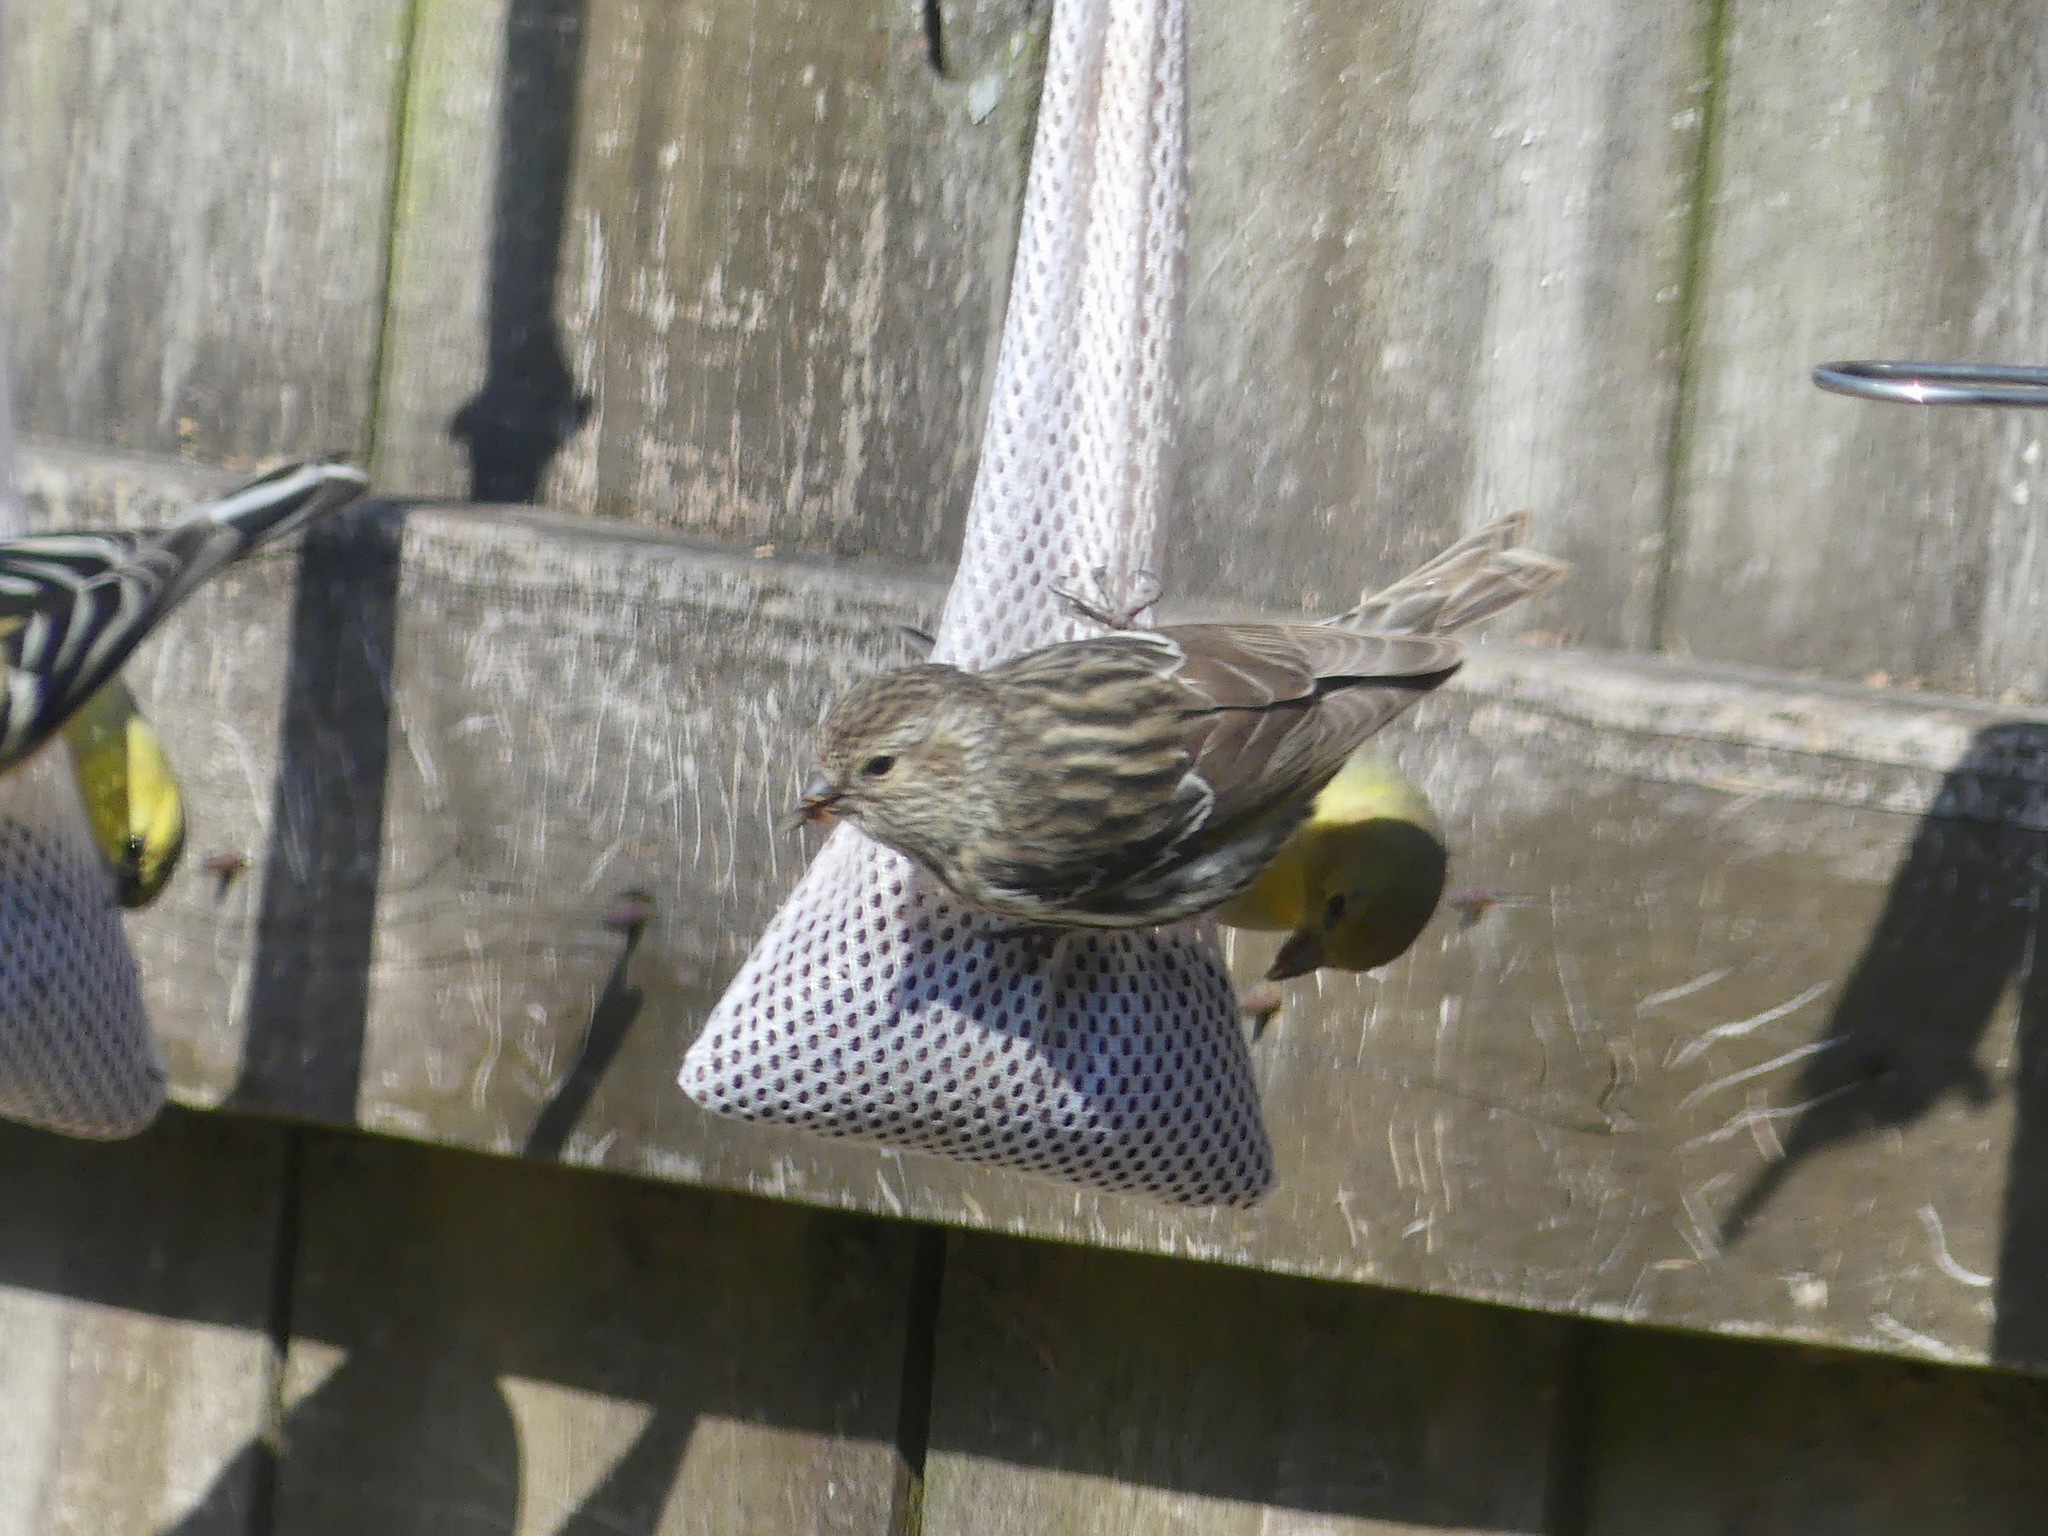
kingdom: Animalia
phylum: Chordata
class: Aves
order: Passeriformes
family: Fringillidae
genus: Spinus
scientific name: Spinus pinus
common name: Pine siskin
